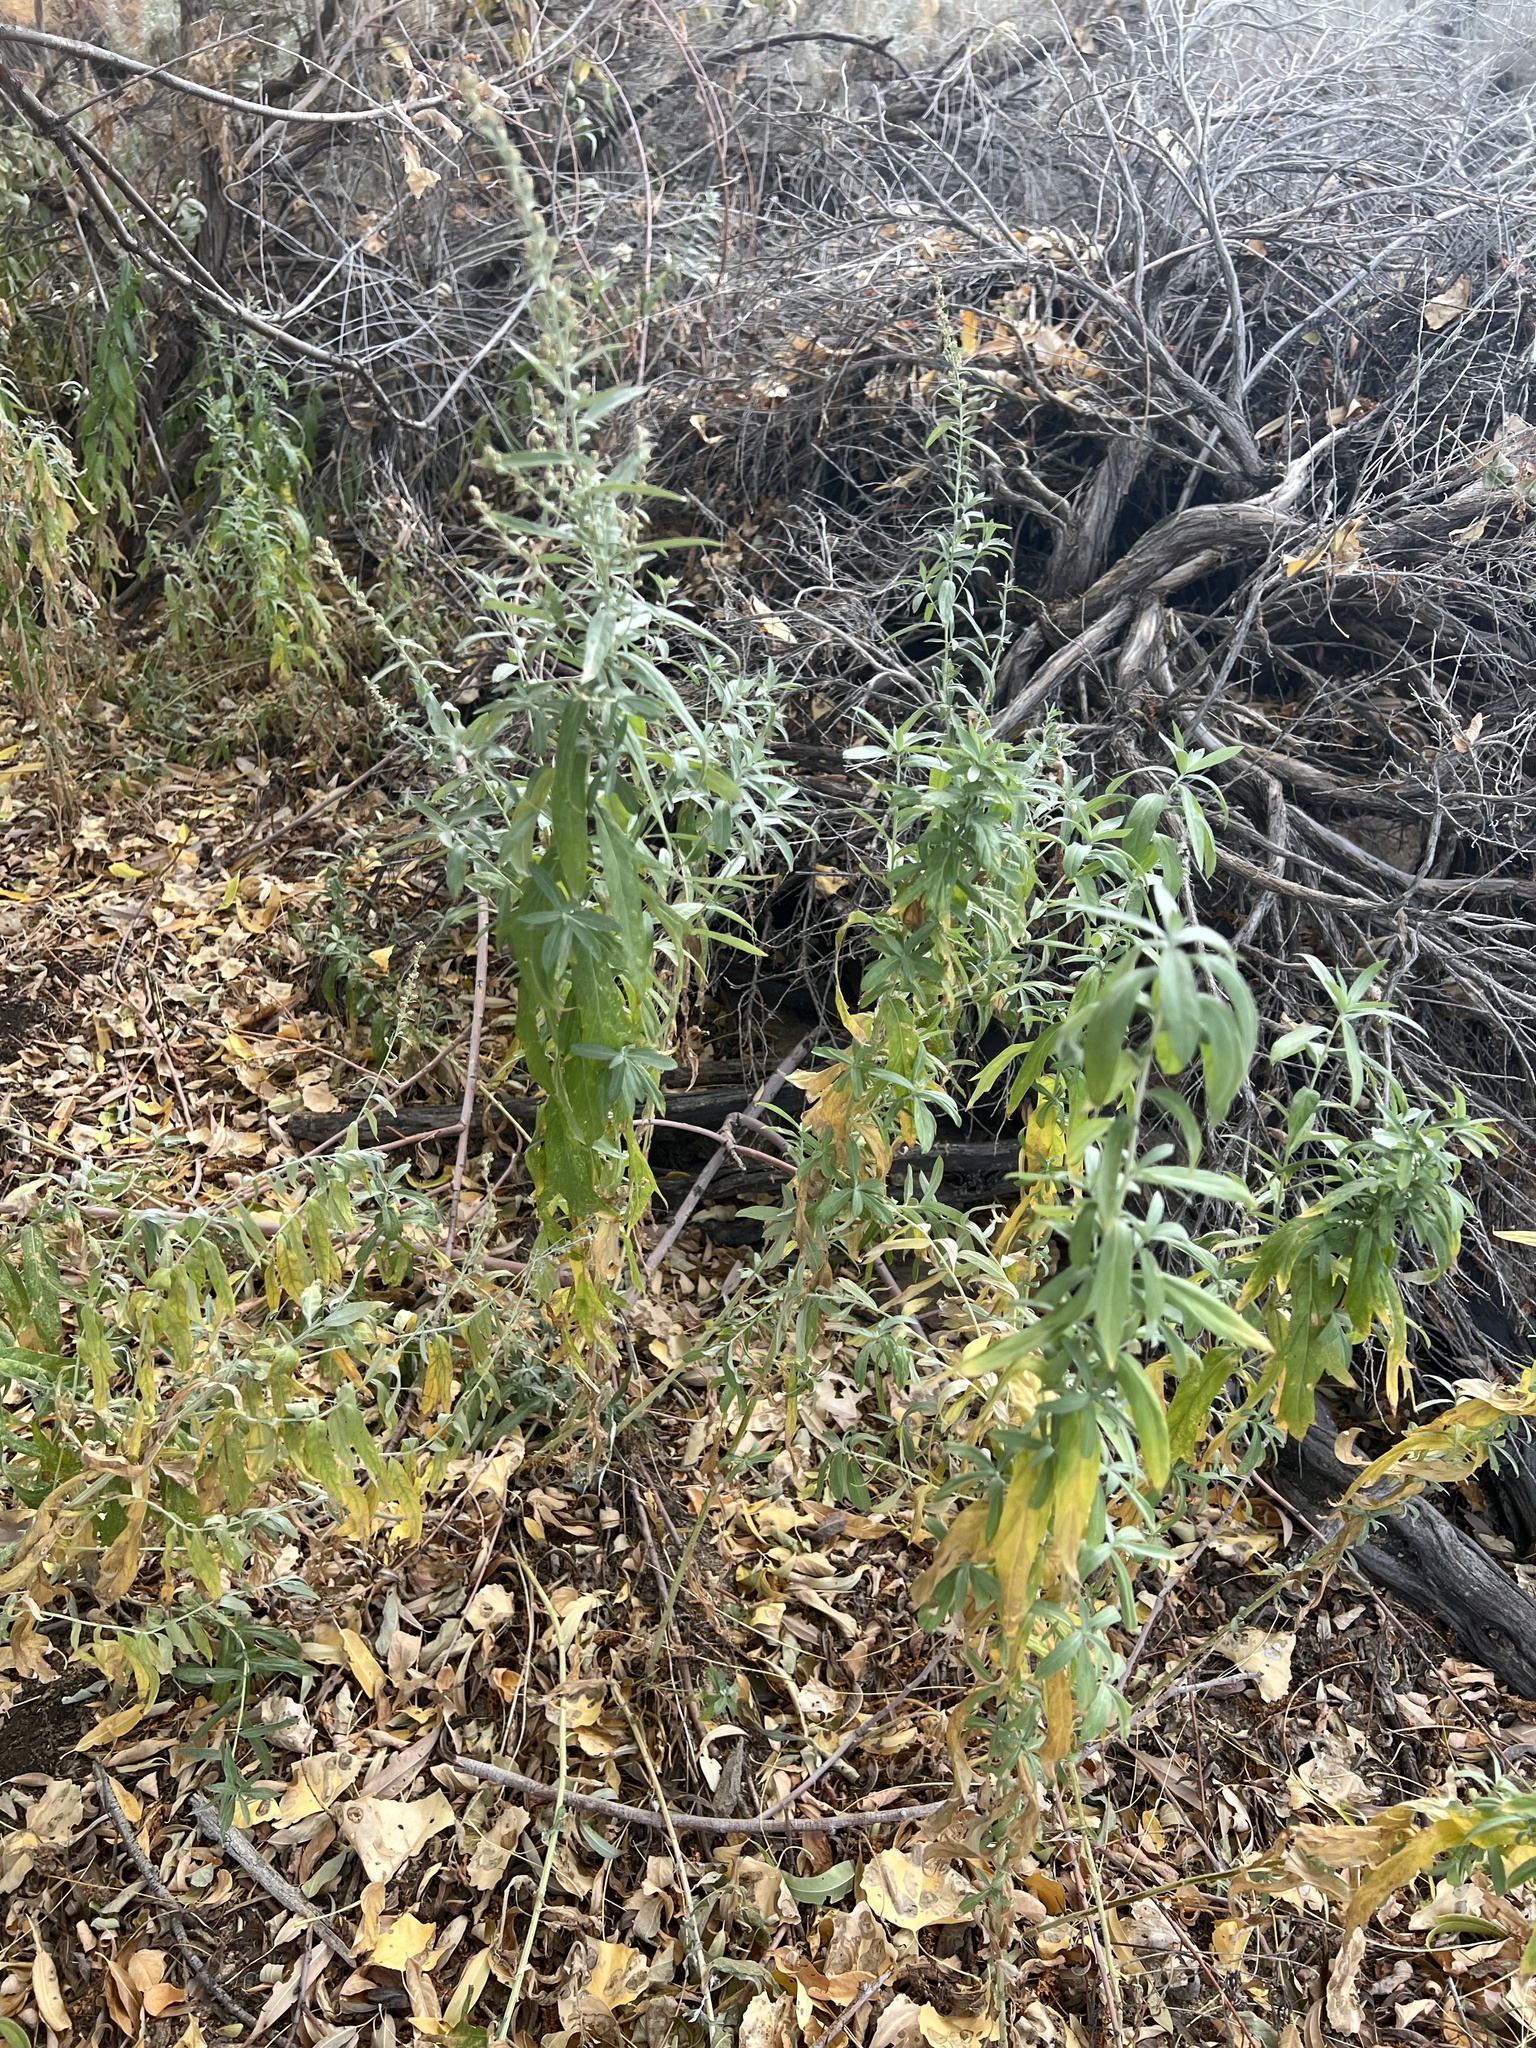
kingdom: Plantae
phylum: Tracheophyta
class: Magnoliopsida
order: Asterales
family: Asteraceae
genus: Artemisia
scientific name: Artemisia douglasiana
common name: Northwest mugwort
